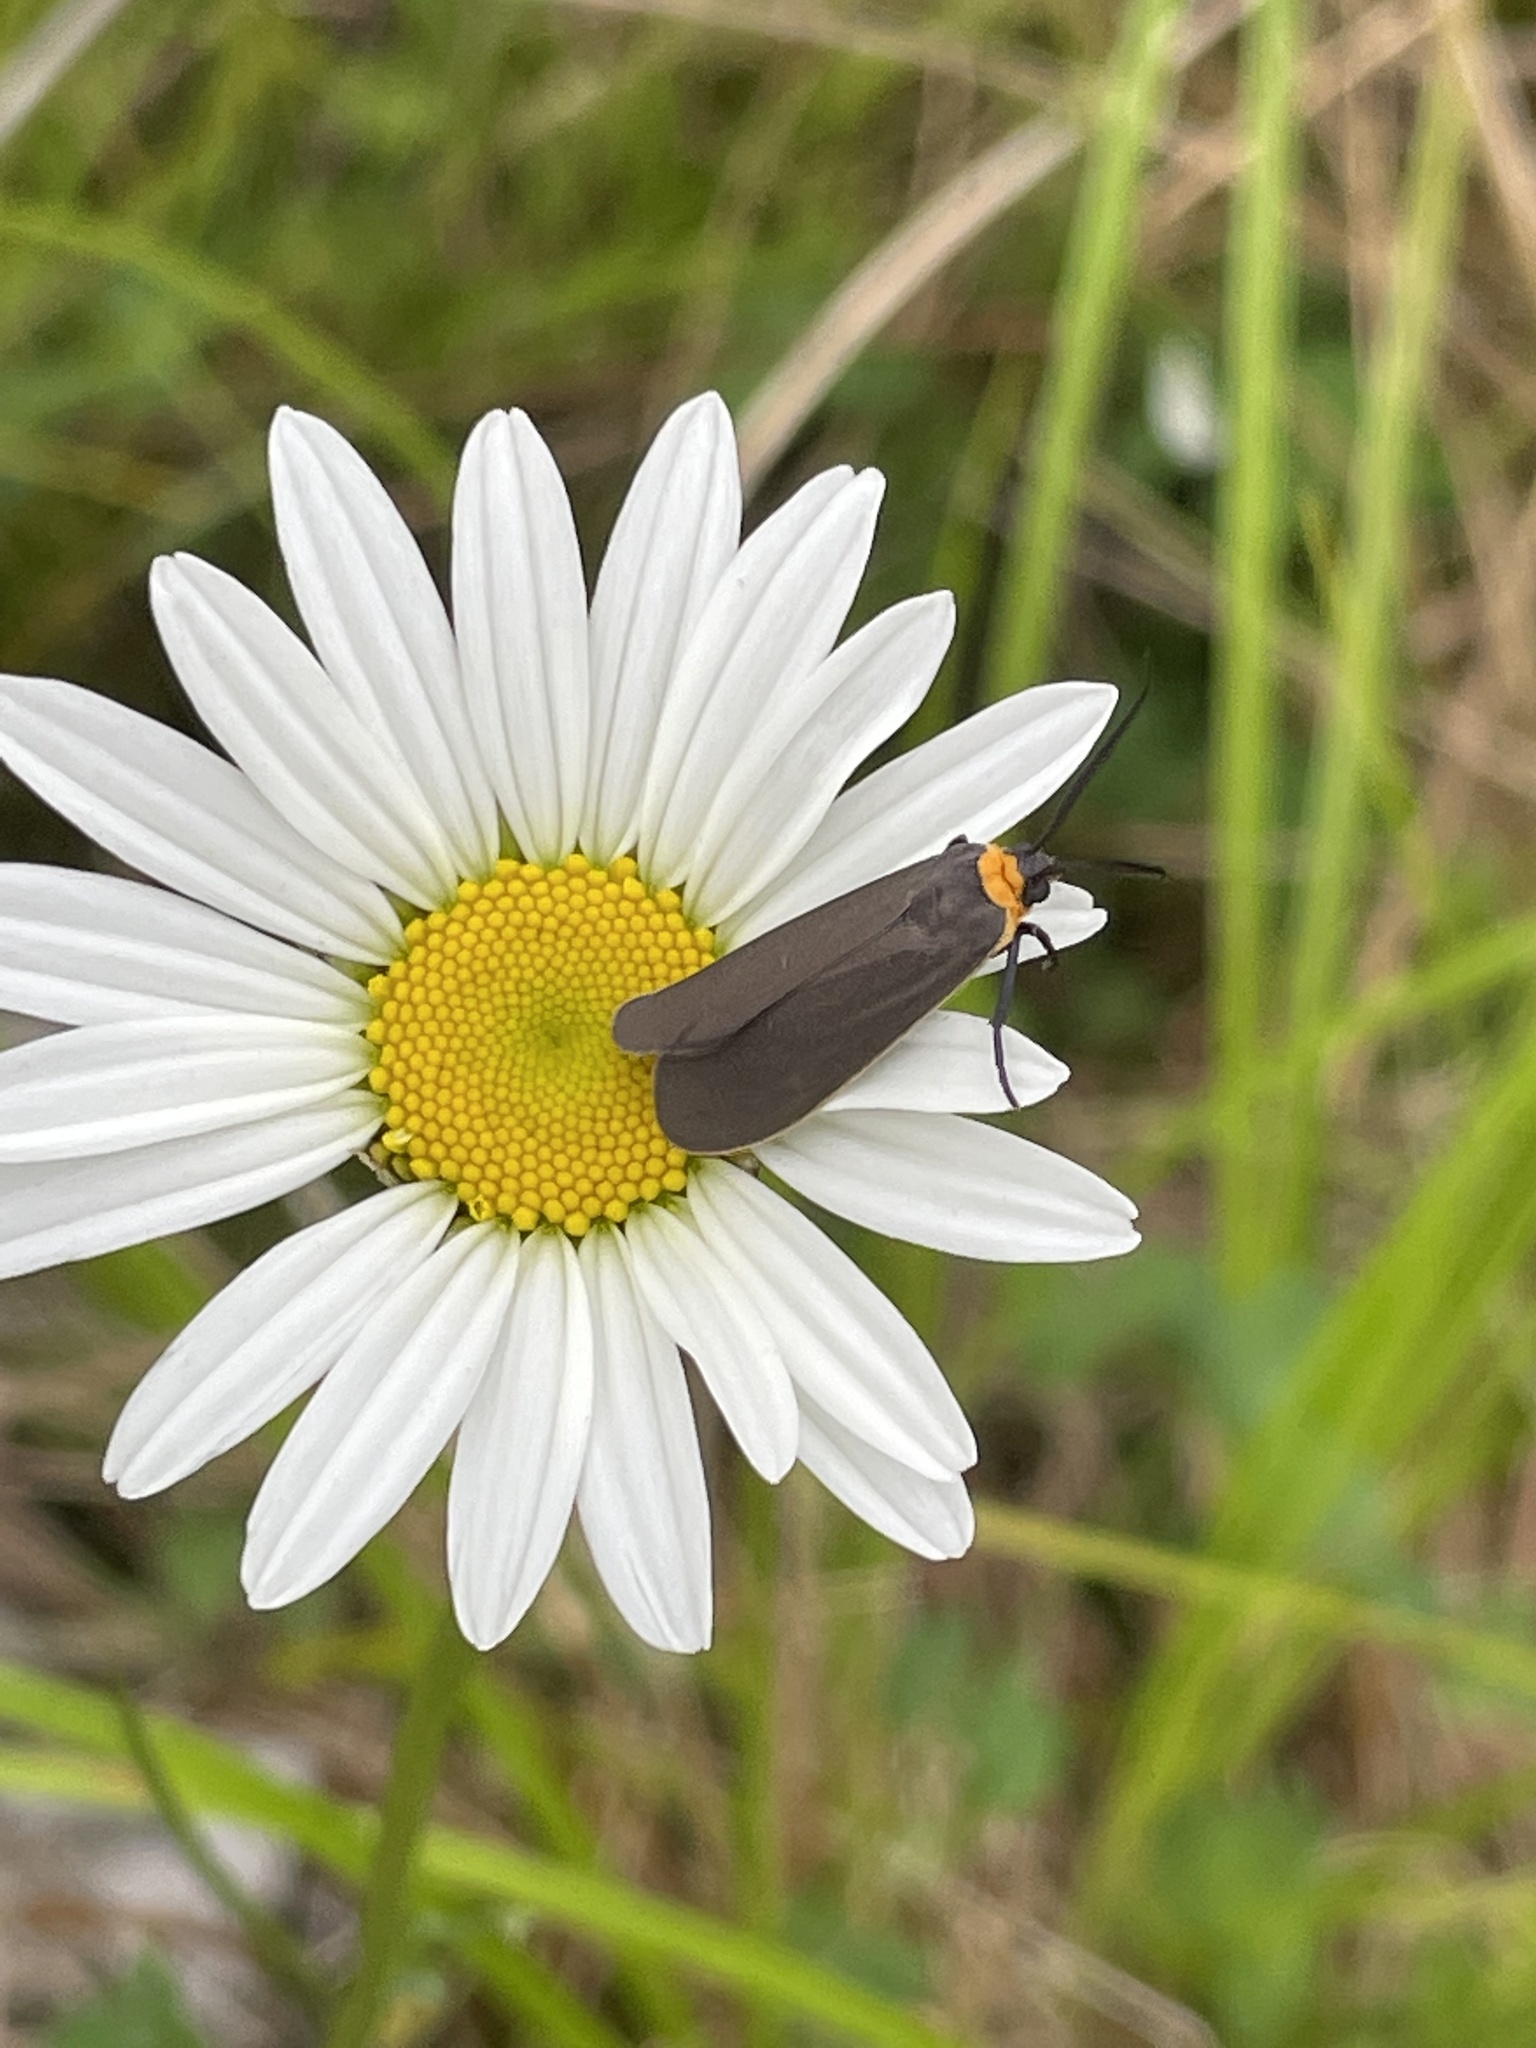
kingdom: Animalia
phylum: Arthropoda
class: Insecta
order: Lepidoptera
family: Erebidae
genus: Cisseps
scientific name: Cisseps fulvicollis
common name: Yellow-collared scape moth
